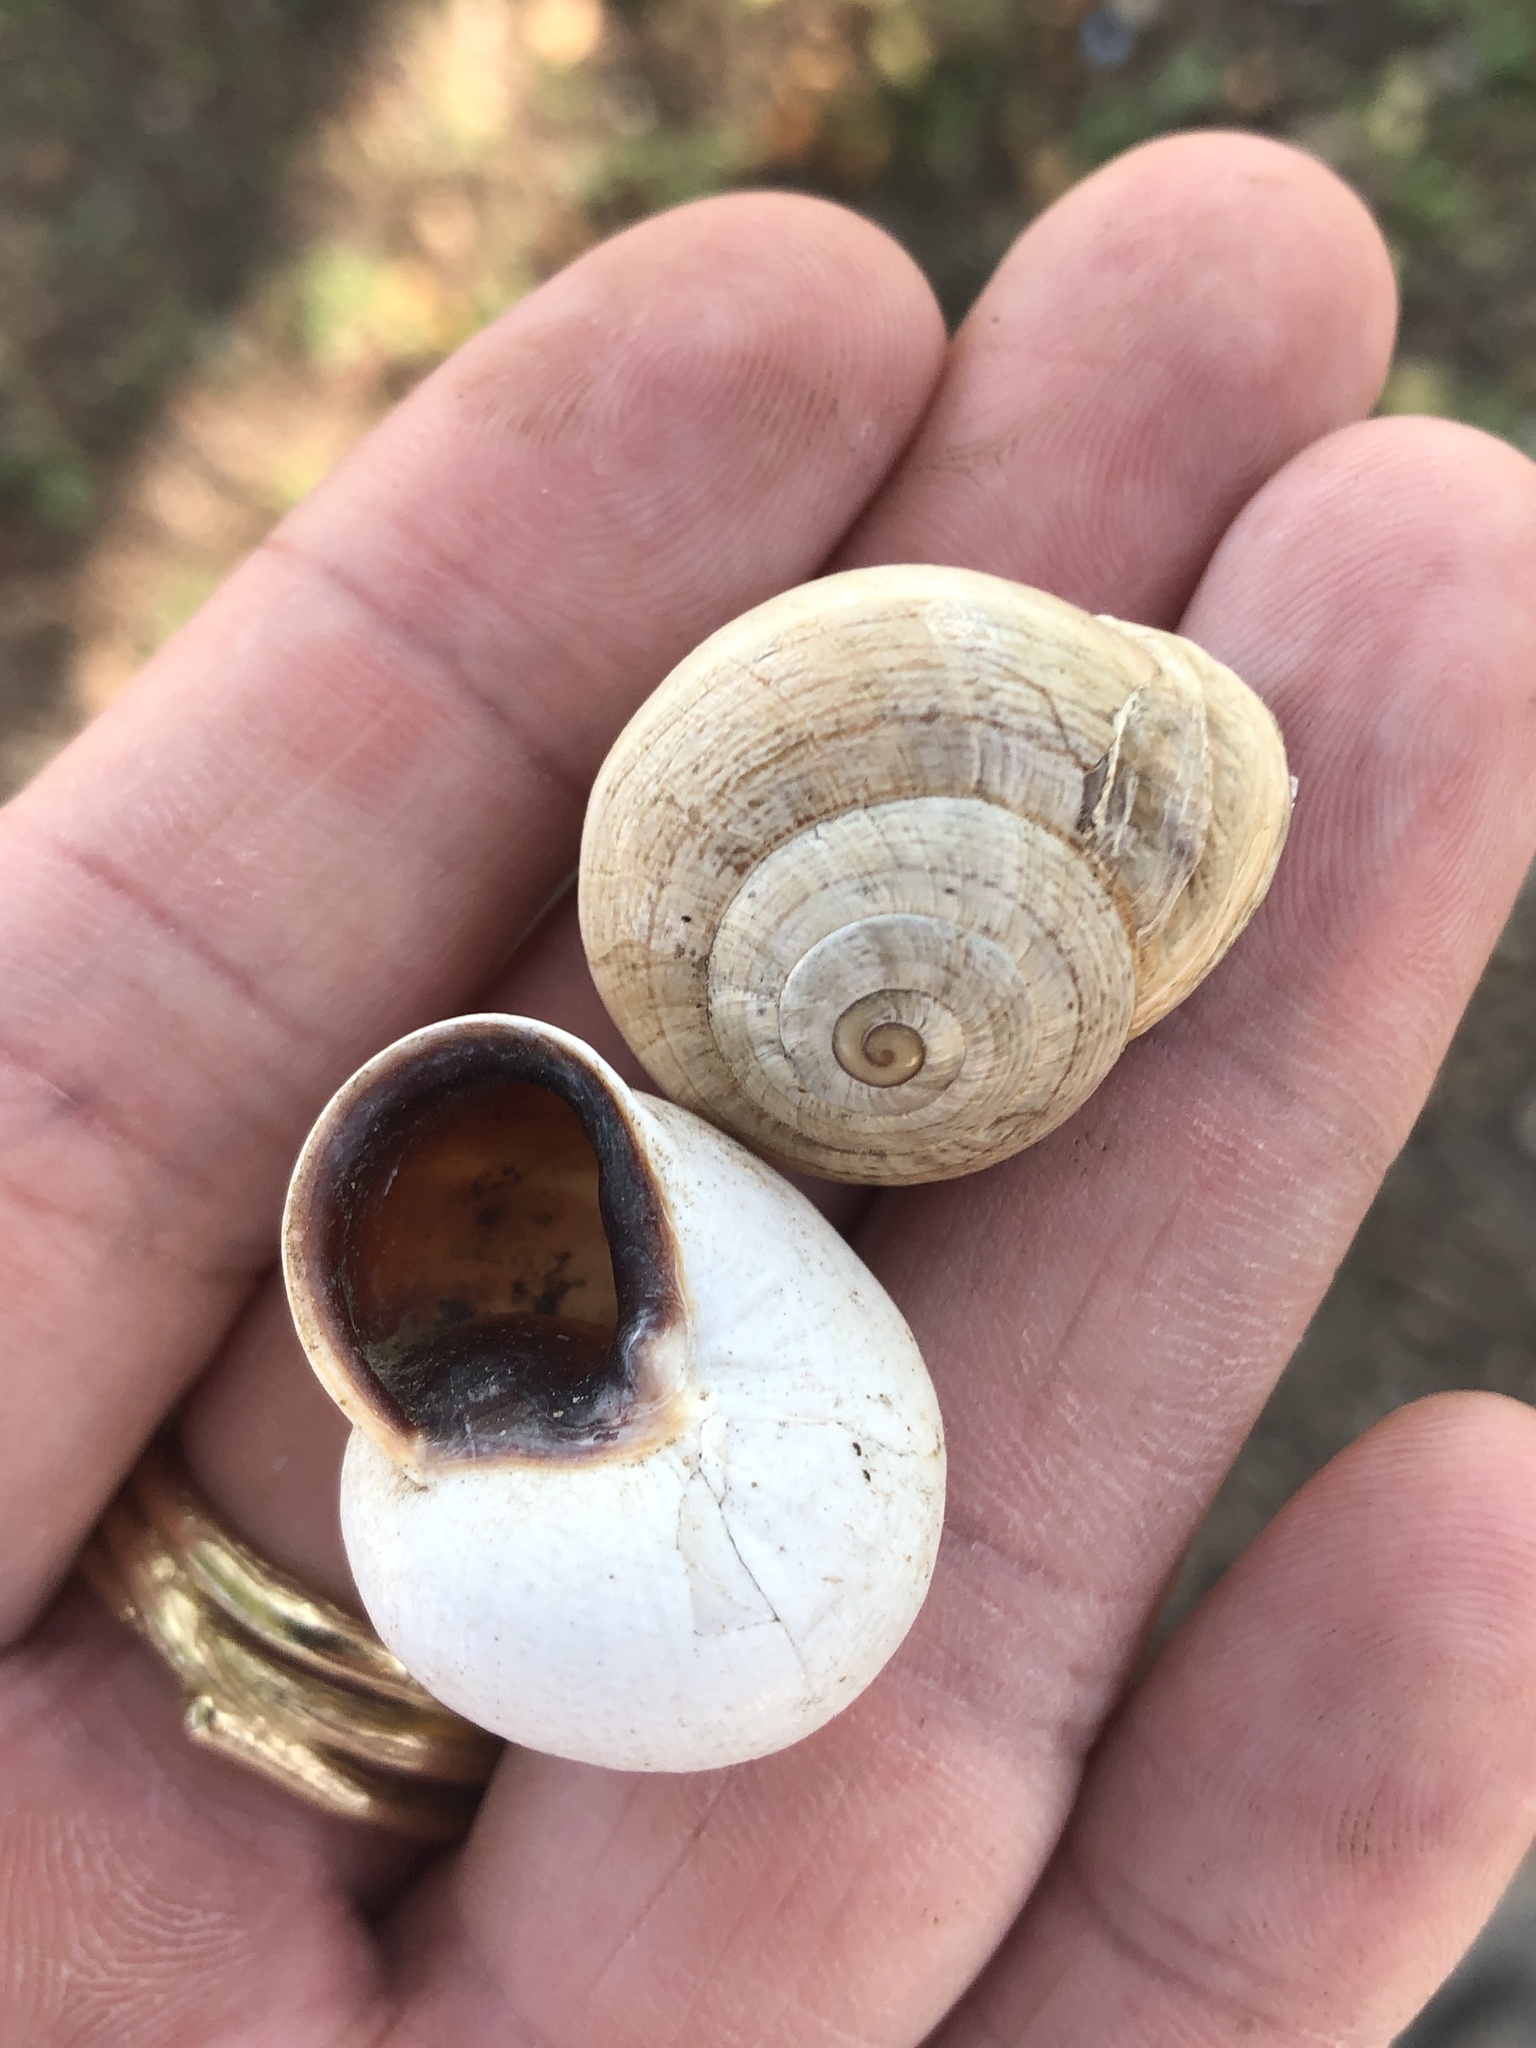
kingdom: Animalia
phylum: Mollusca
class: Gastropoda
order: Stylommatophora
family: Helicidae
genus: Otala
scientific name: Otala lactea
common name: Milk snail
